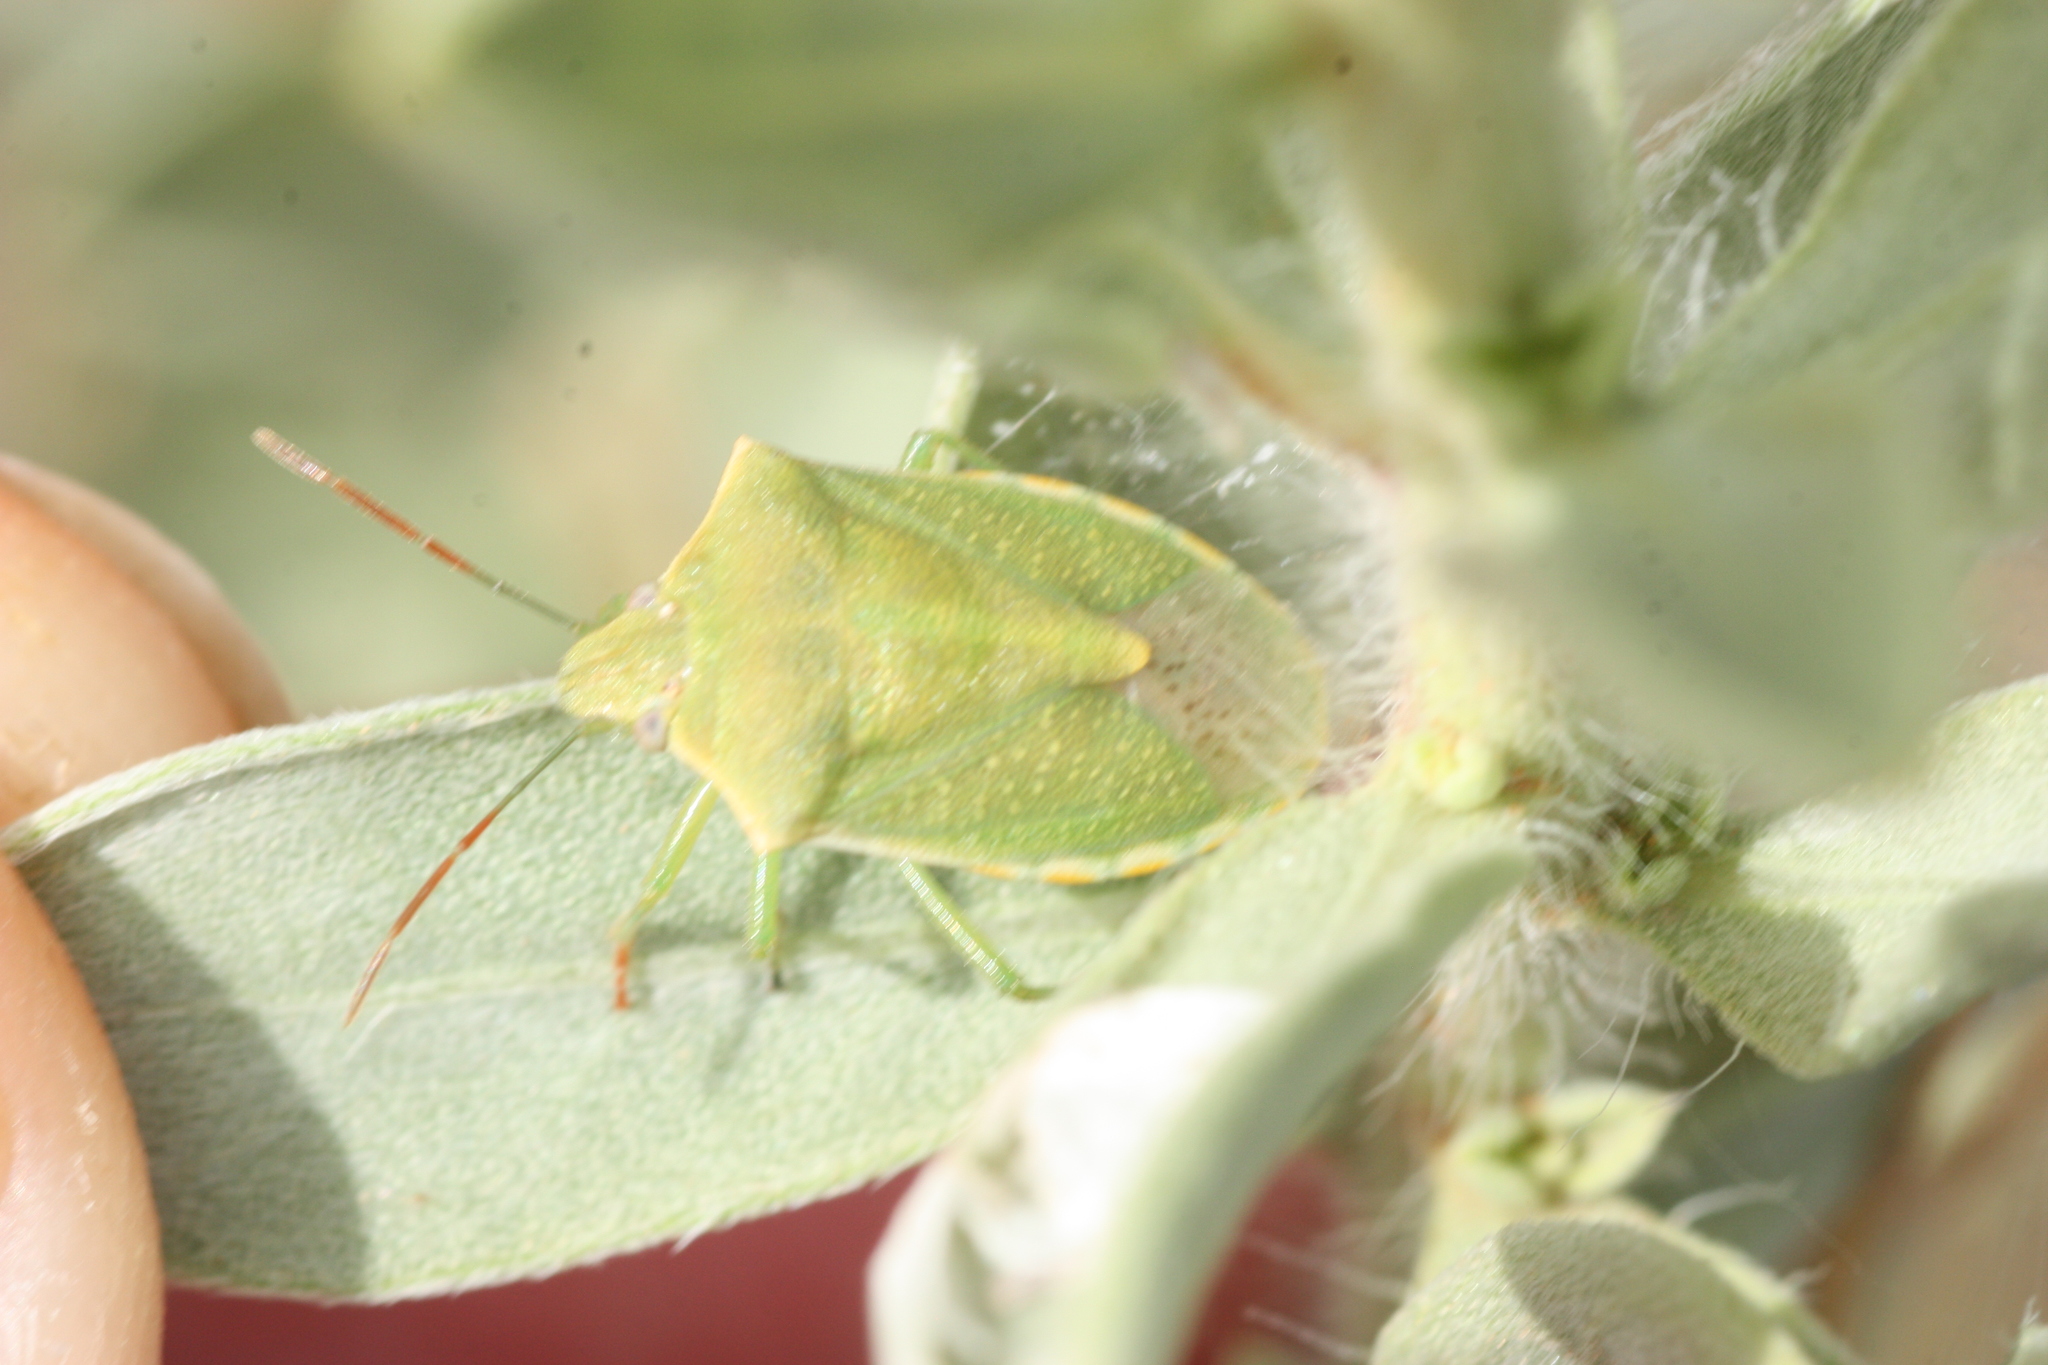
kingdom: Animalia
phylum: Arthropoda
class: Insecta
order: Hemiptera
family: Pentatomidae
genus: Thyanta
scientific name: Thyanta custator
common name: Stink bug
